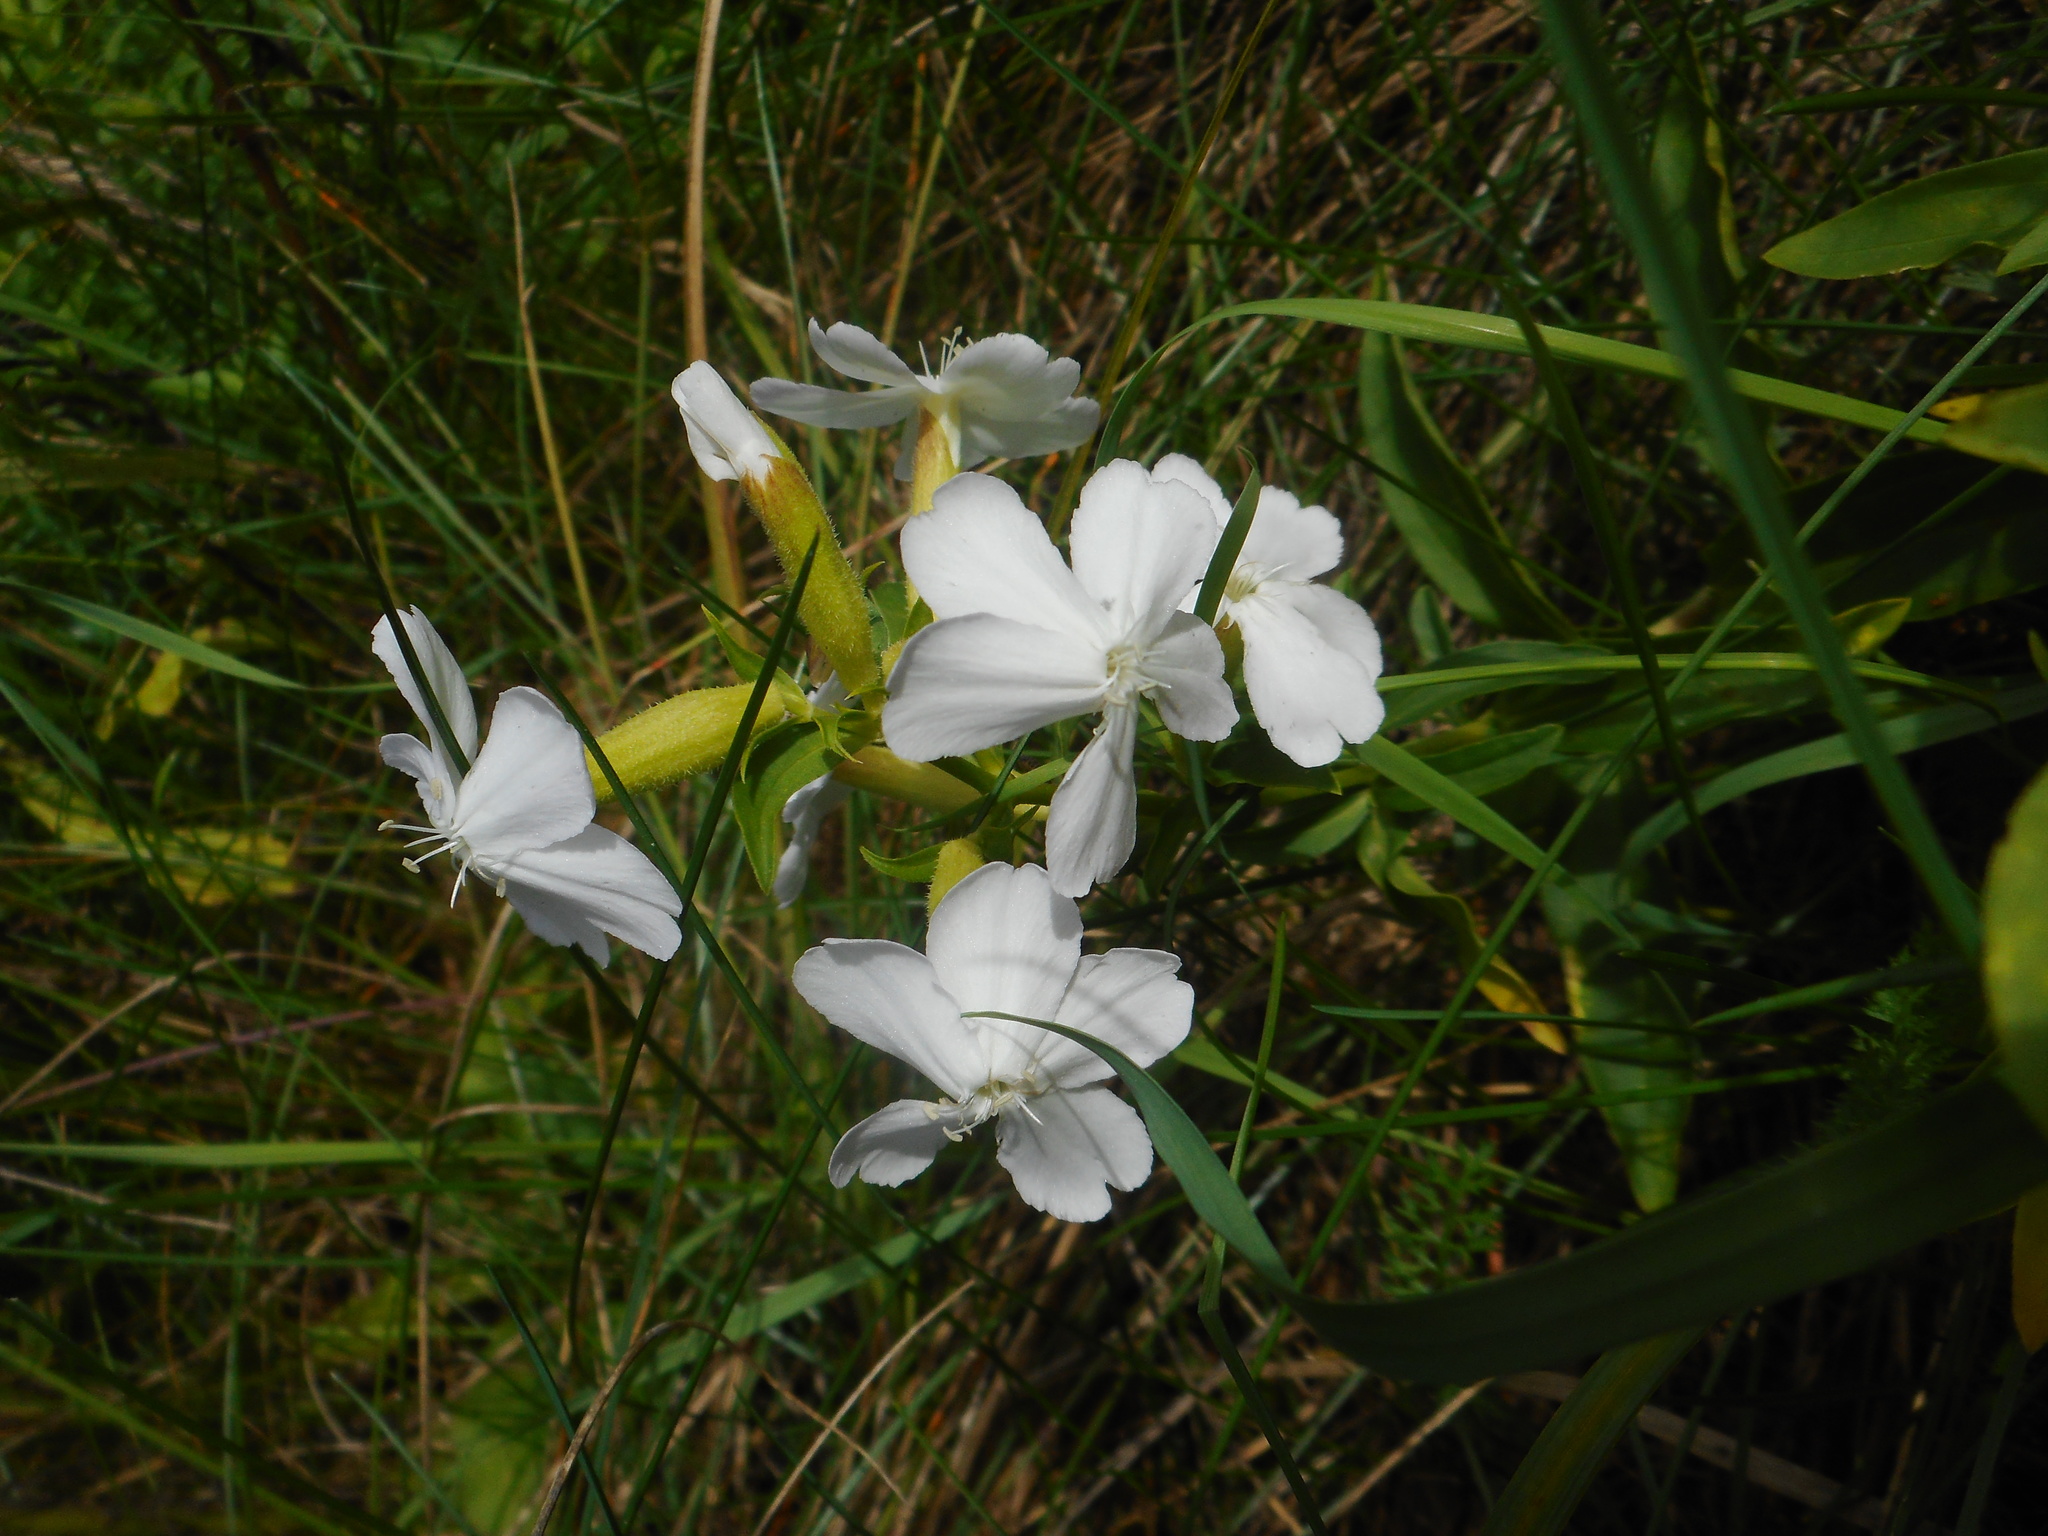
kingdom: Plantae
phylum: Tracheophyta
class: Magnoliopsida
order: Caryophyllales
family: Caryophyllaceae
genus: Saponaria
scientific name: Saponaria officinalis
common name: Soapwort
